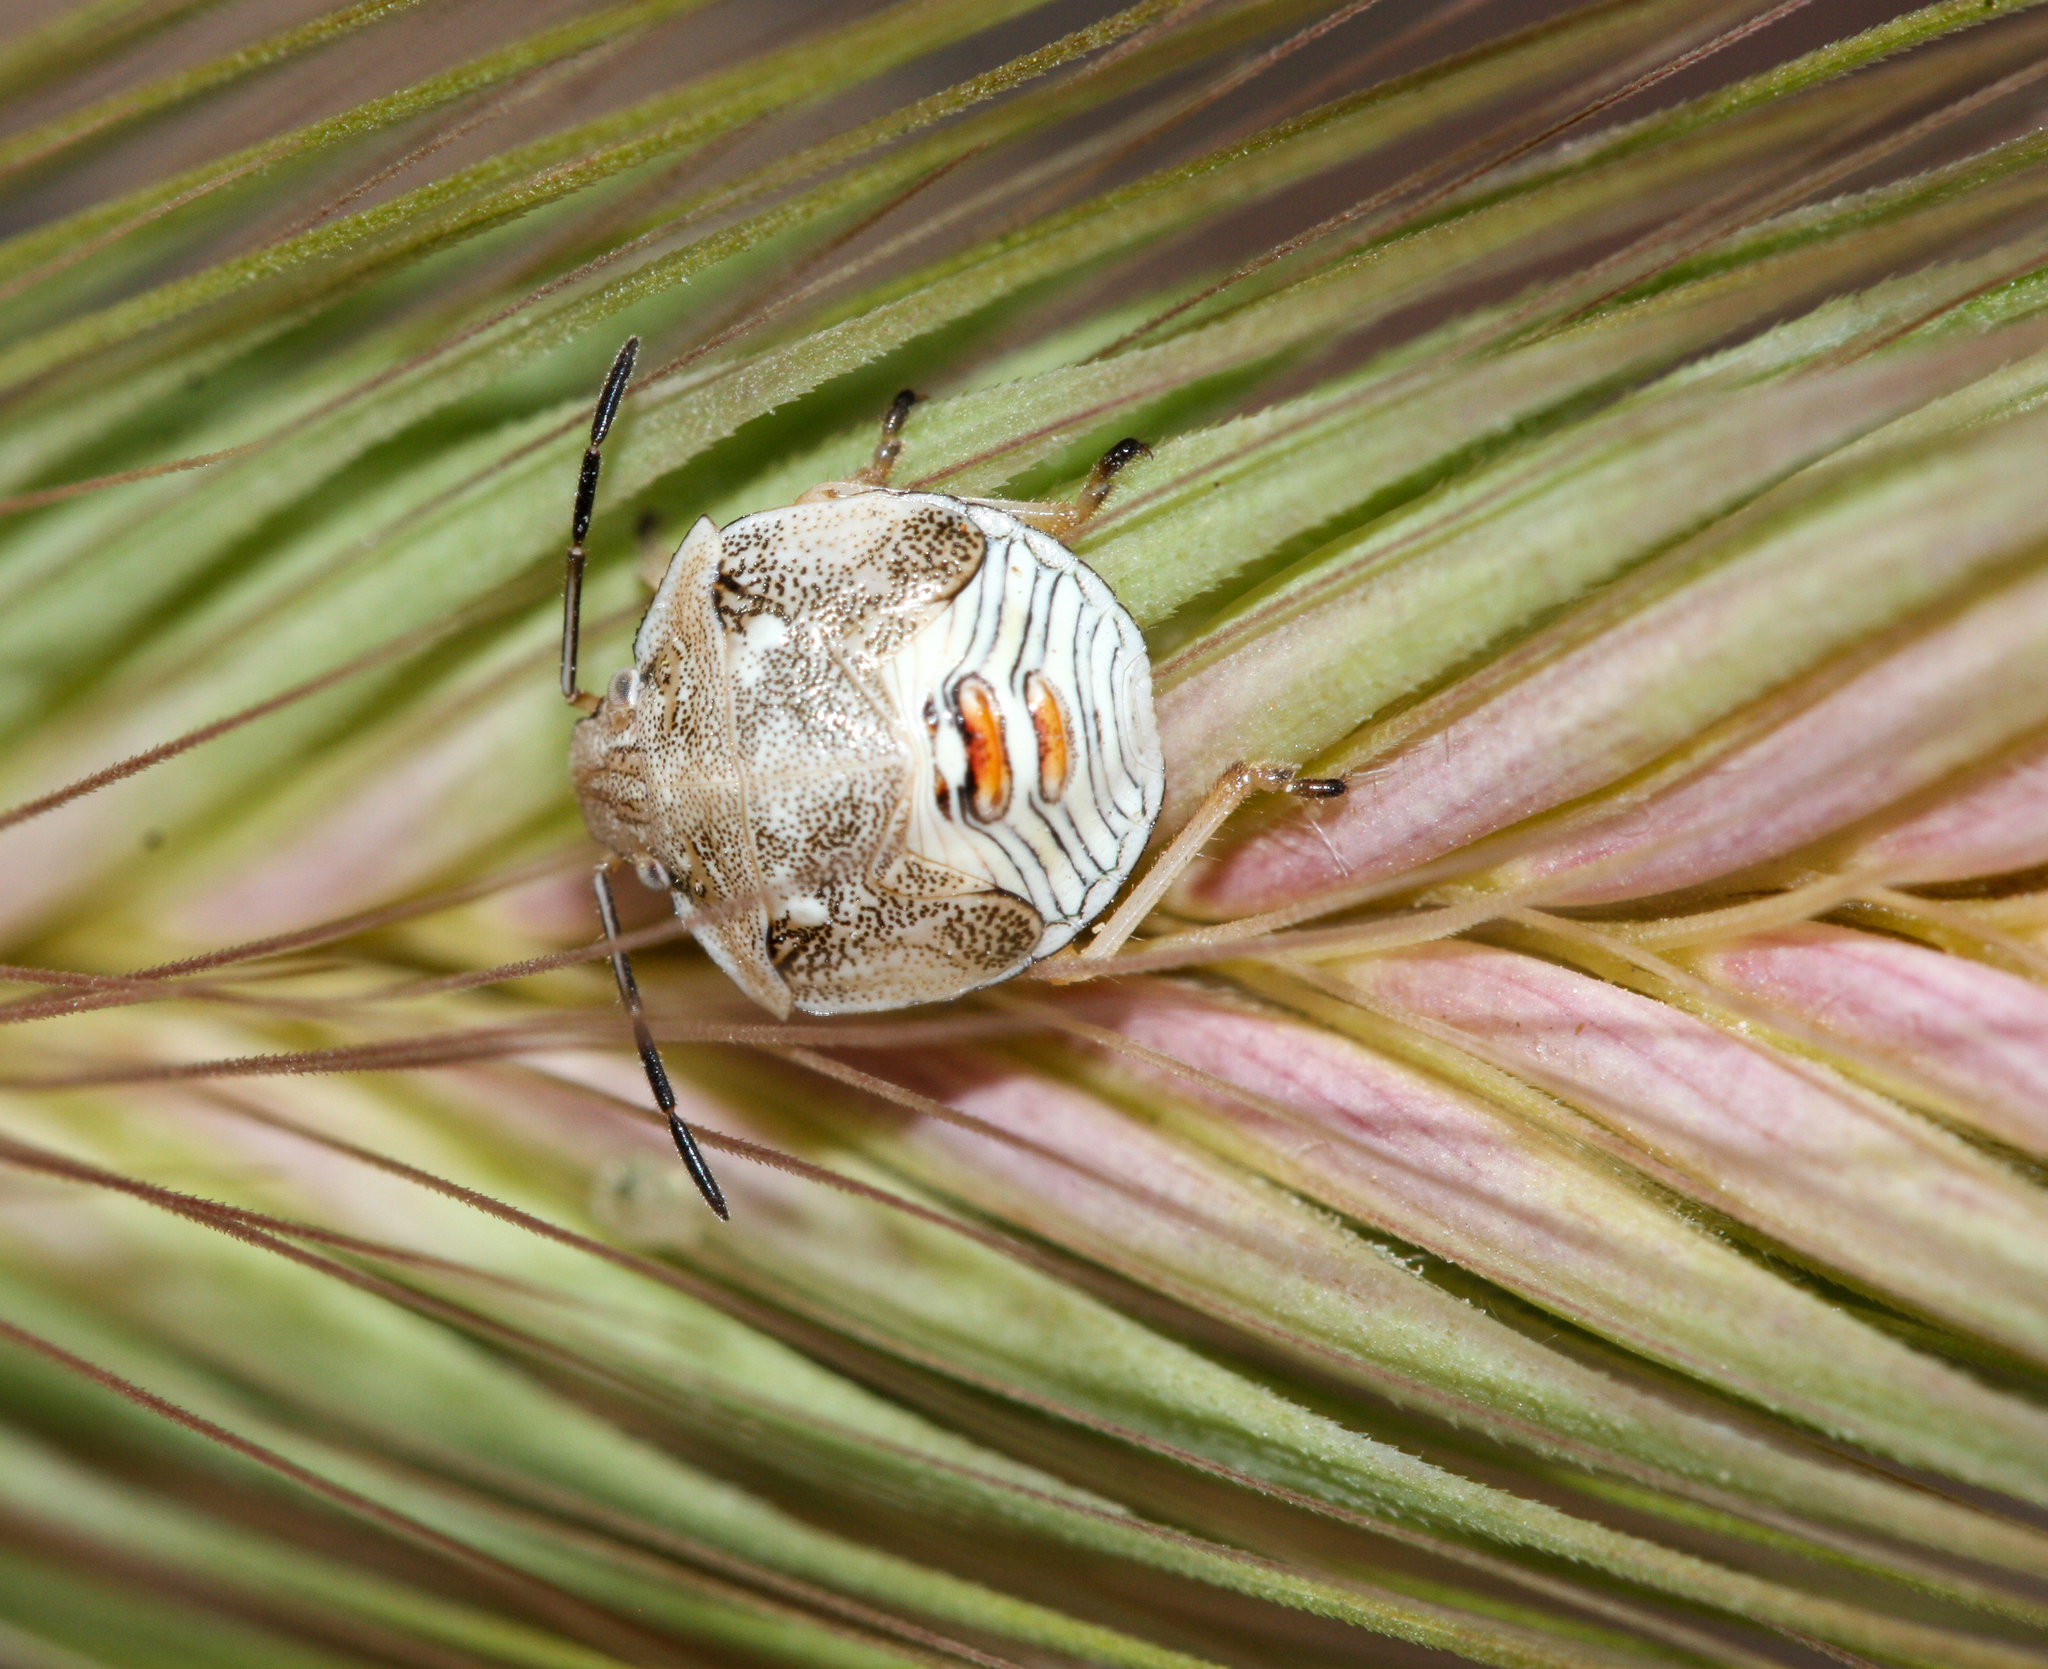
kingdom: Animalia
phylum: Arthropoda
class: Insecta
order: Hemiptera
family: Pentatomidae
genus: Thyanta
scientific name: Thyanta accerra
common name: Stink bug
